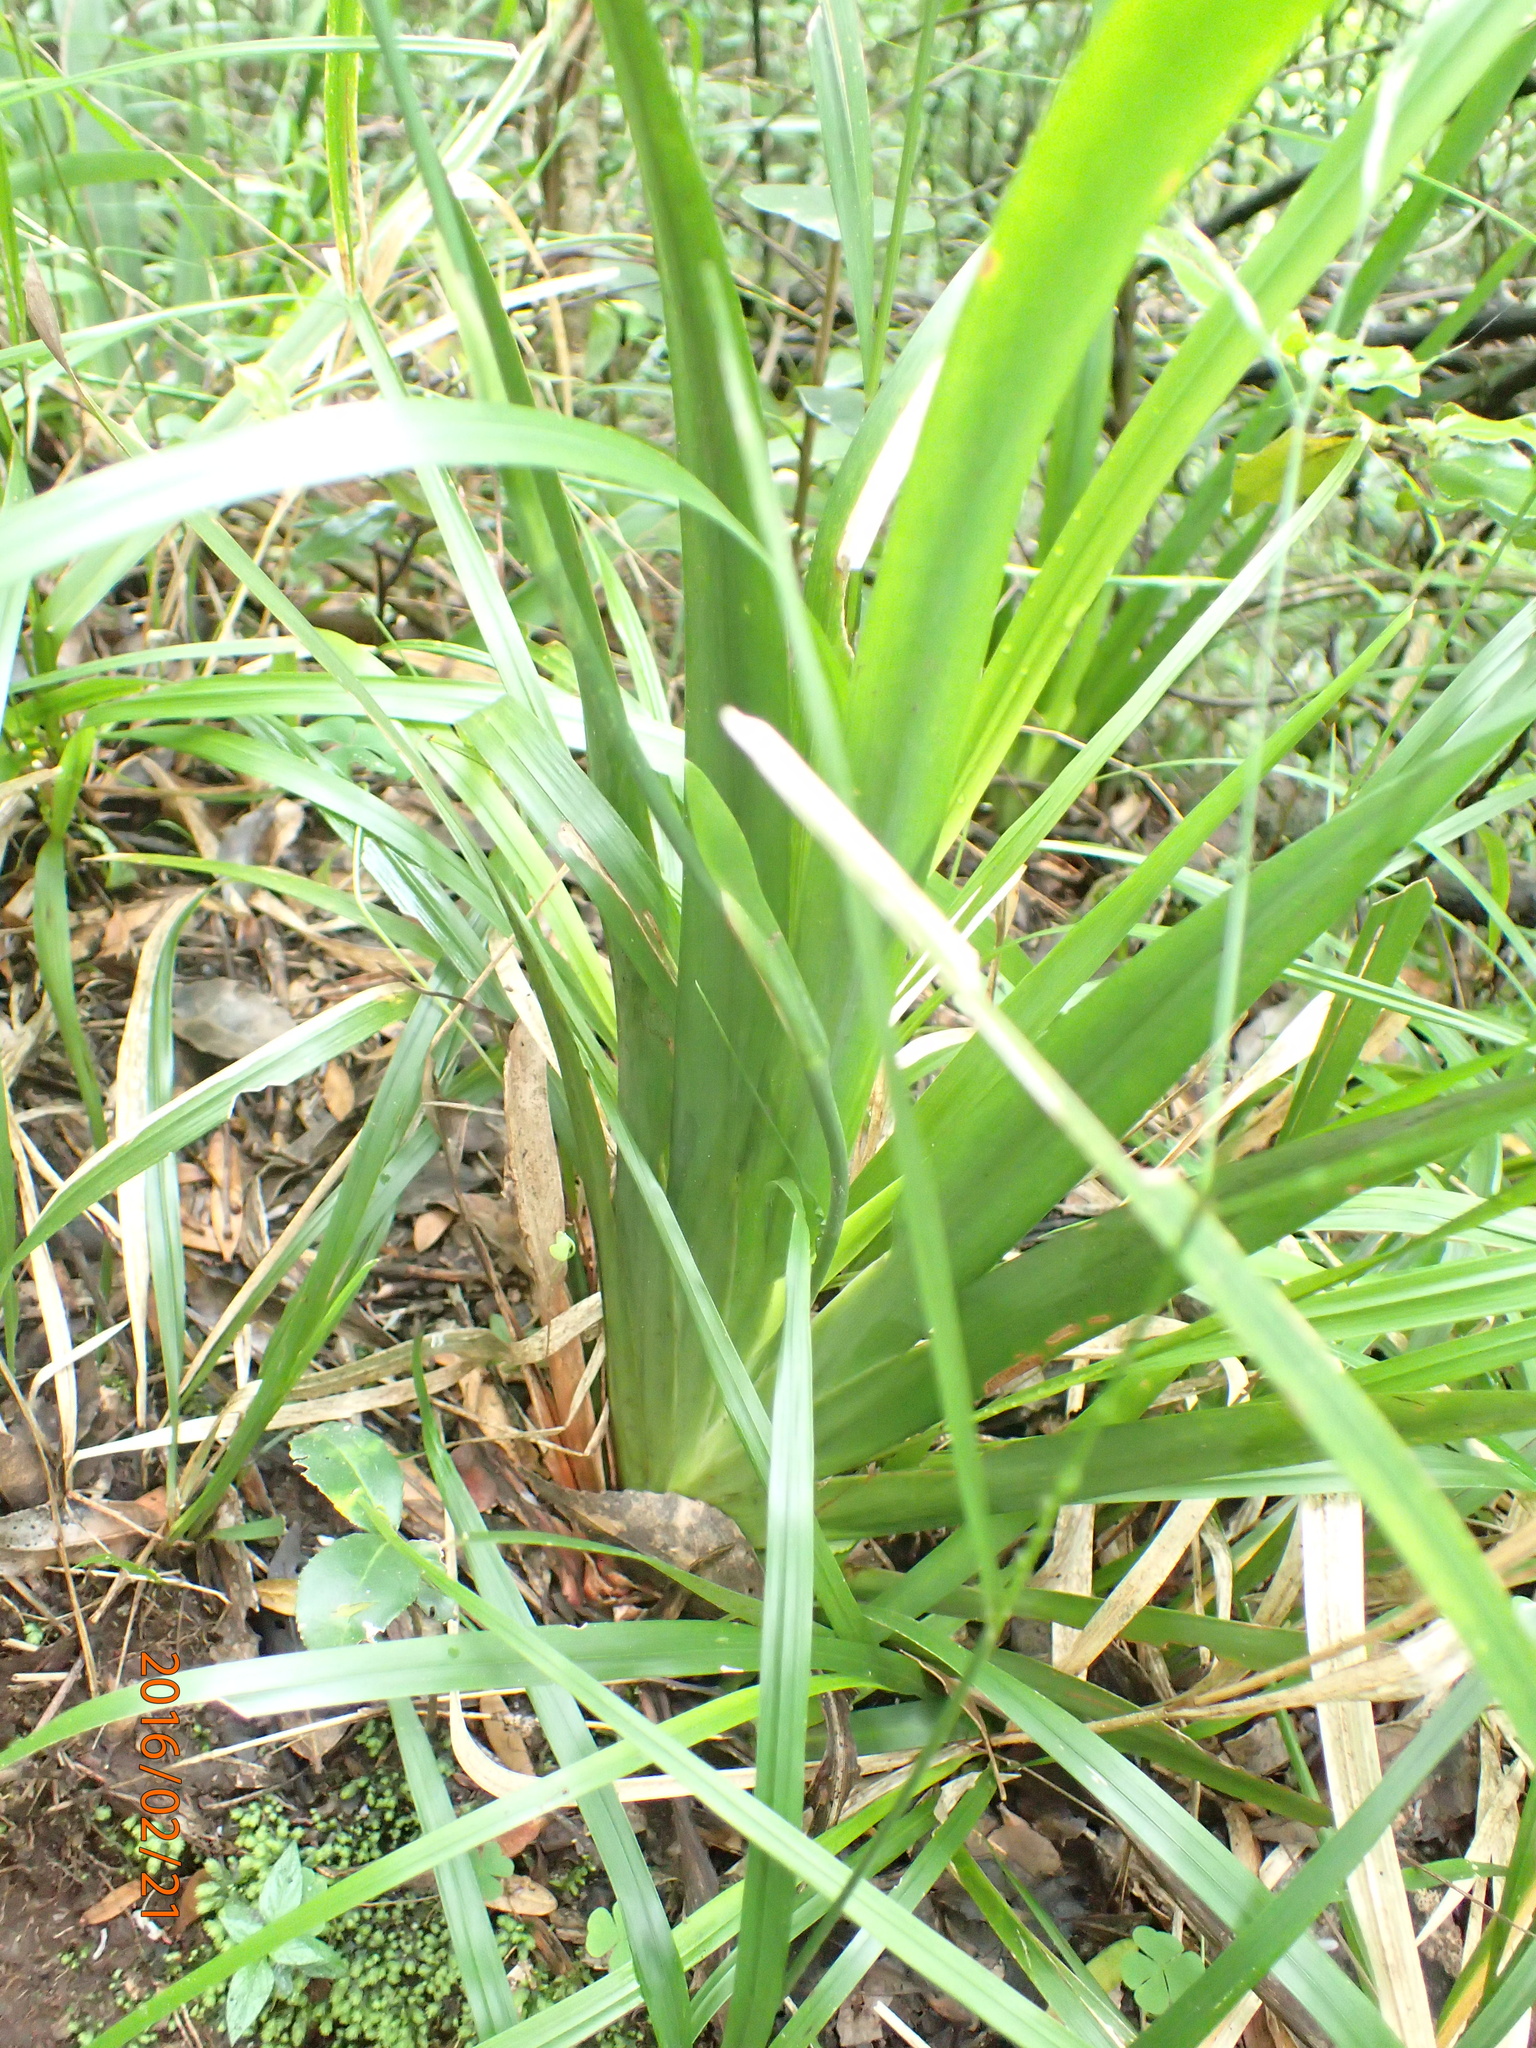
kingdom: Plantae
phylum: Tracheophyta
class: Liliopsida
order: Asparagales
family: Iridaceae
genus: Dietes
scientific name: Dietes iridioides
